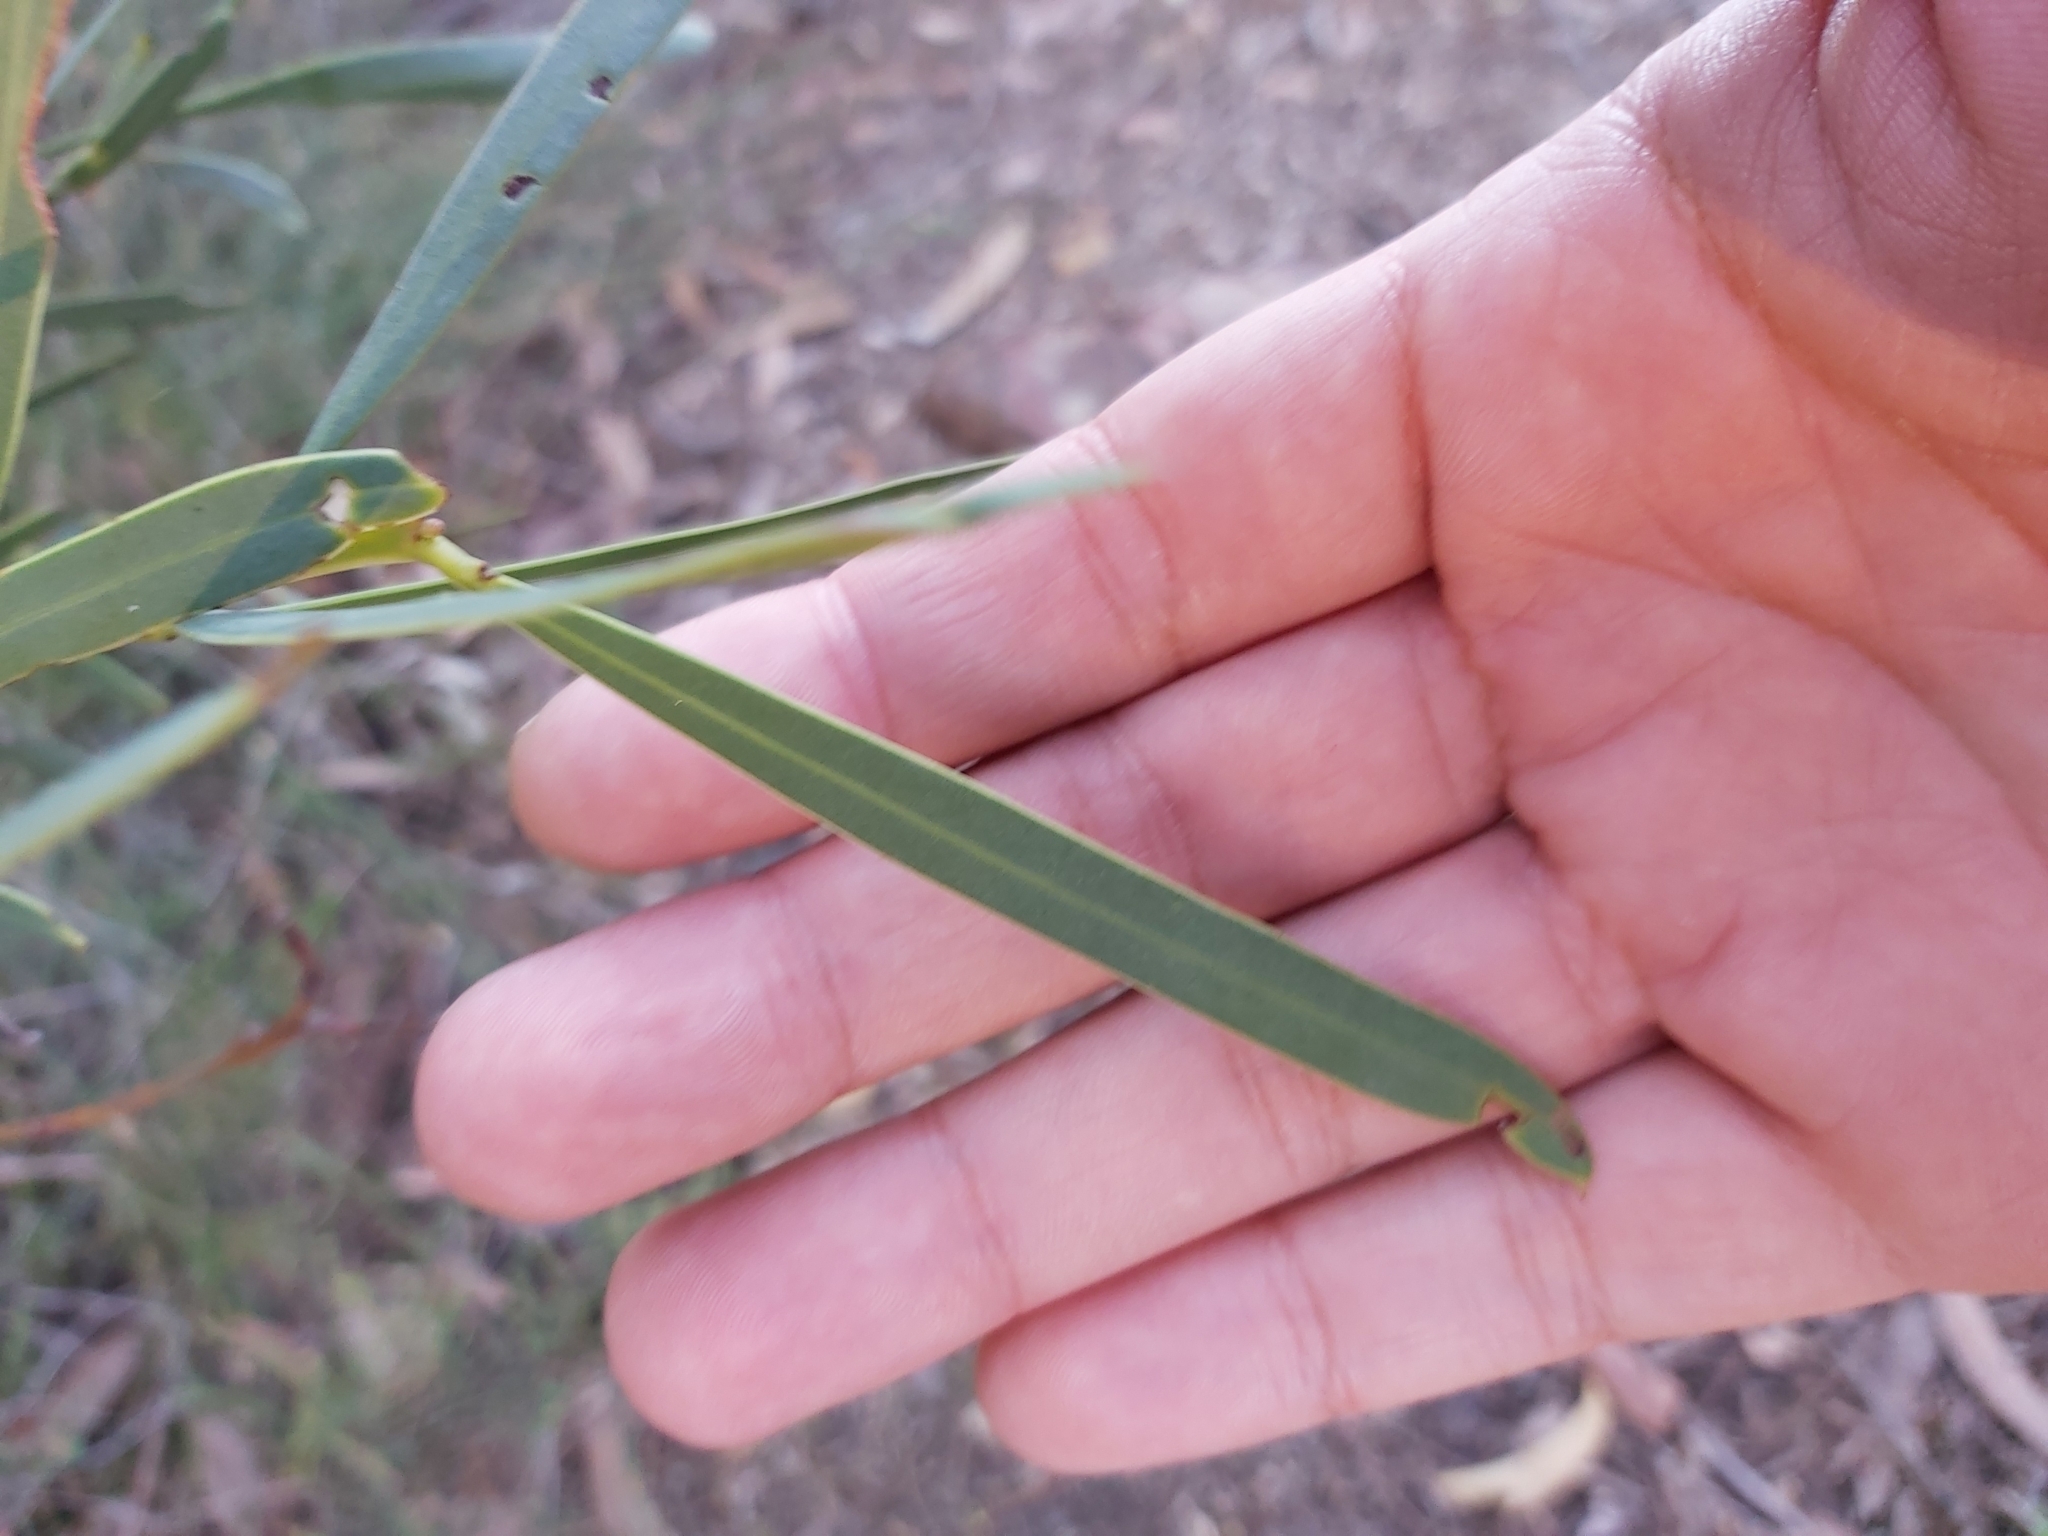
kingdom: Plantae
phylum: Tracheophyta
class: Magnoliopsida
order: Fabales
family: Fabaceae
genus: Acacia
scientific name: Acacia suaveolens
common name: Sweet acacia
